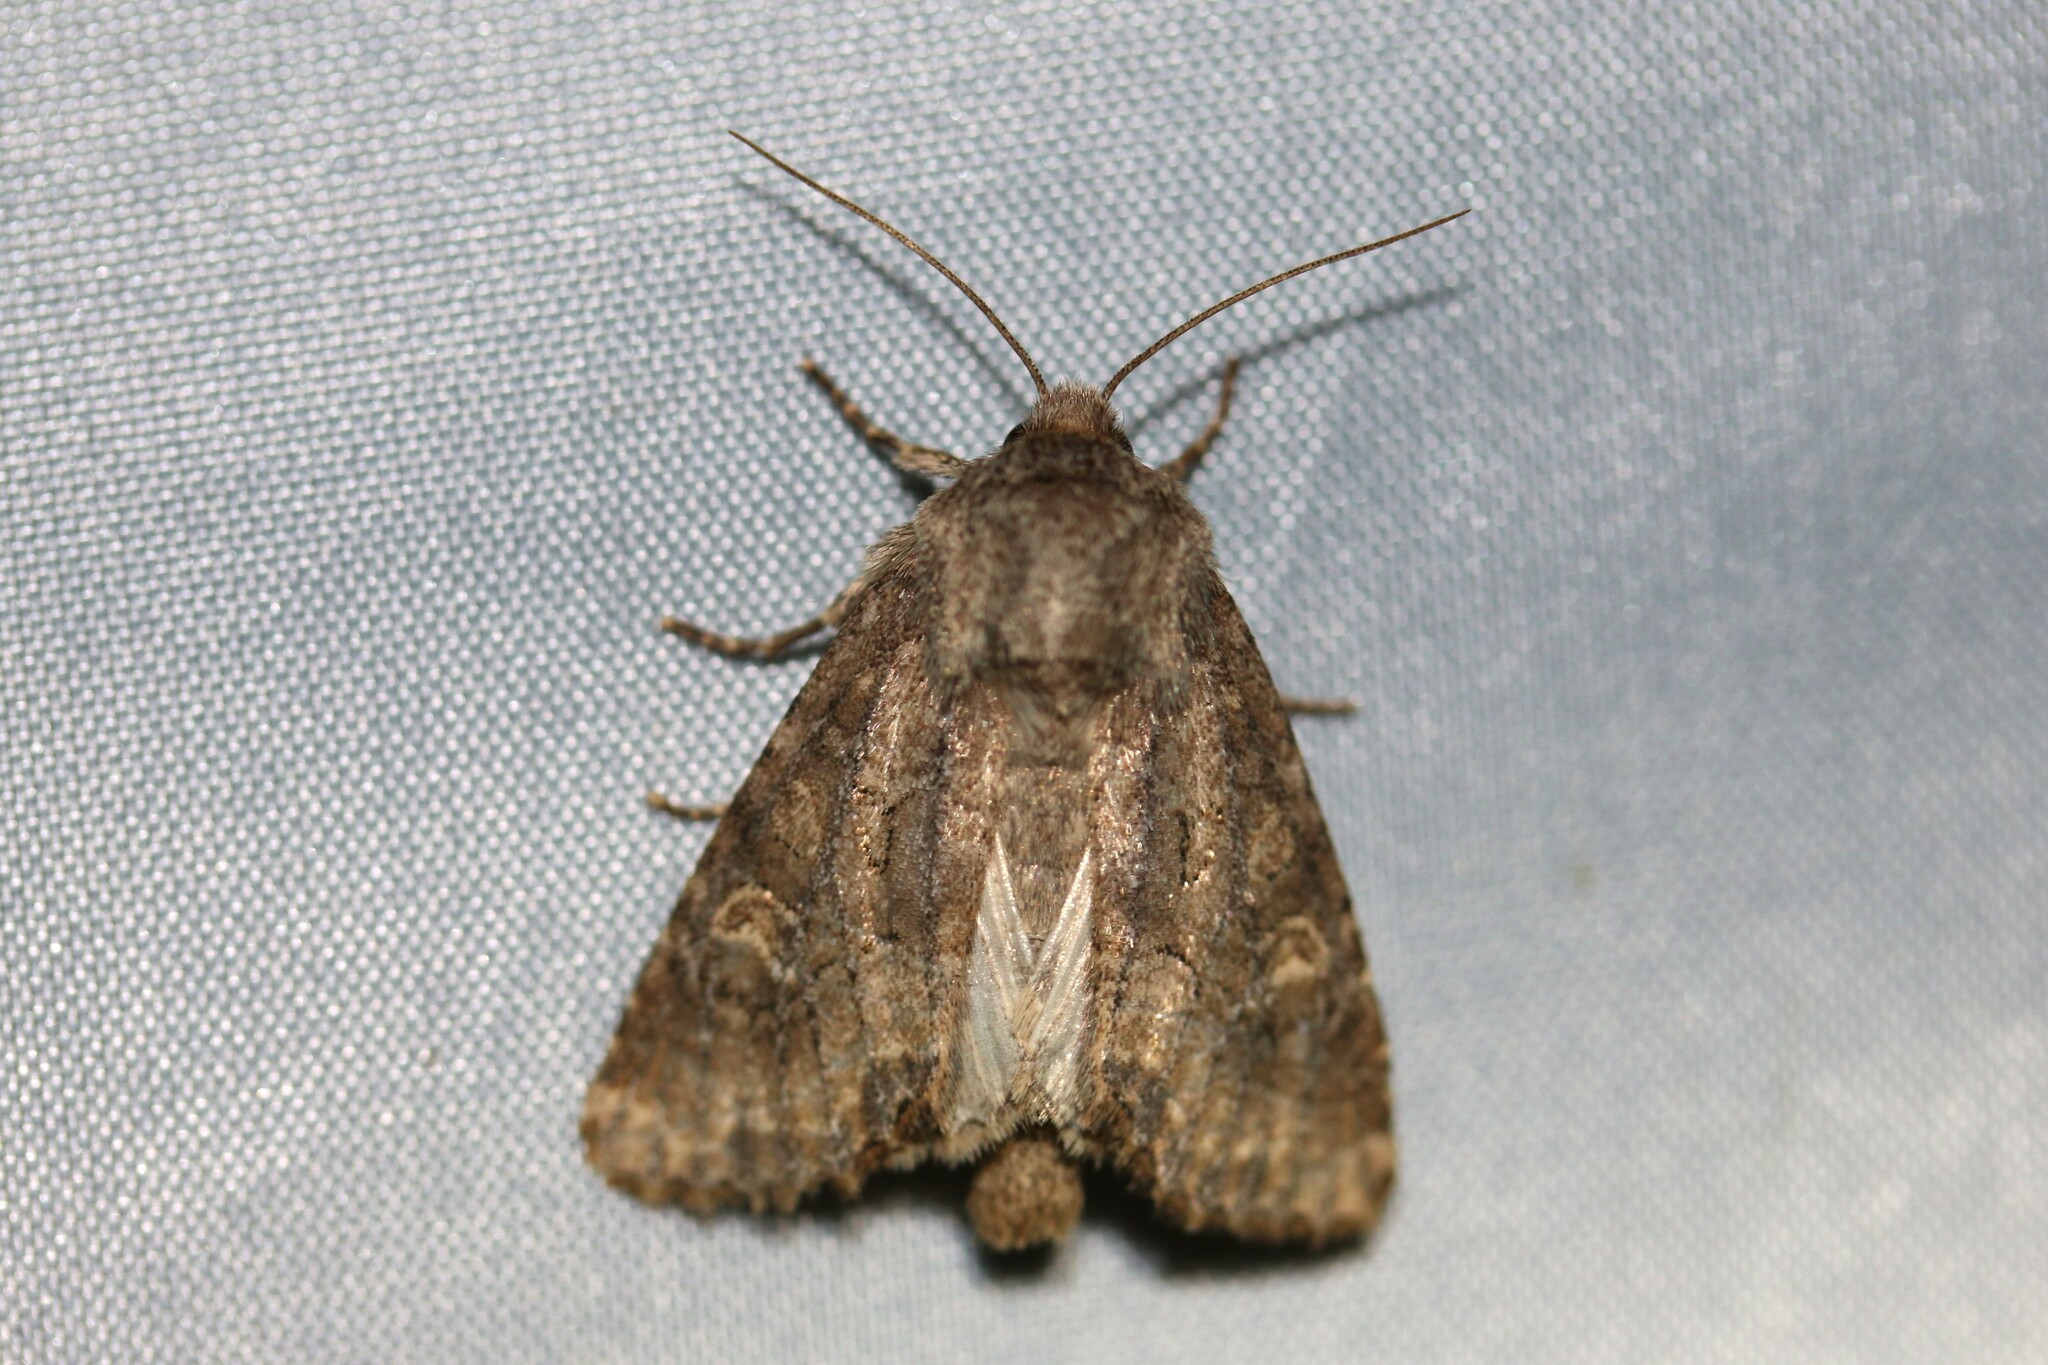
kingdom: Animalia
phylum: Arthropoda
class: Insecta
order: Lepidoptera
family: Noctuidae
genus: Luperina
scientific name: Luperina testacea
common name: Flounced rustic
